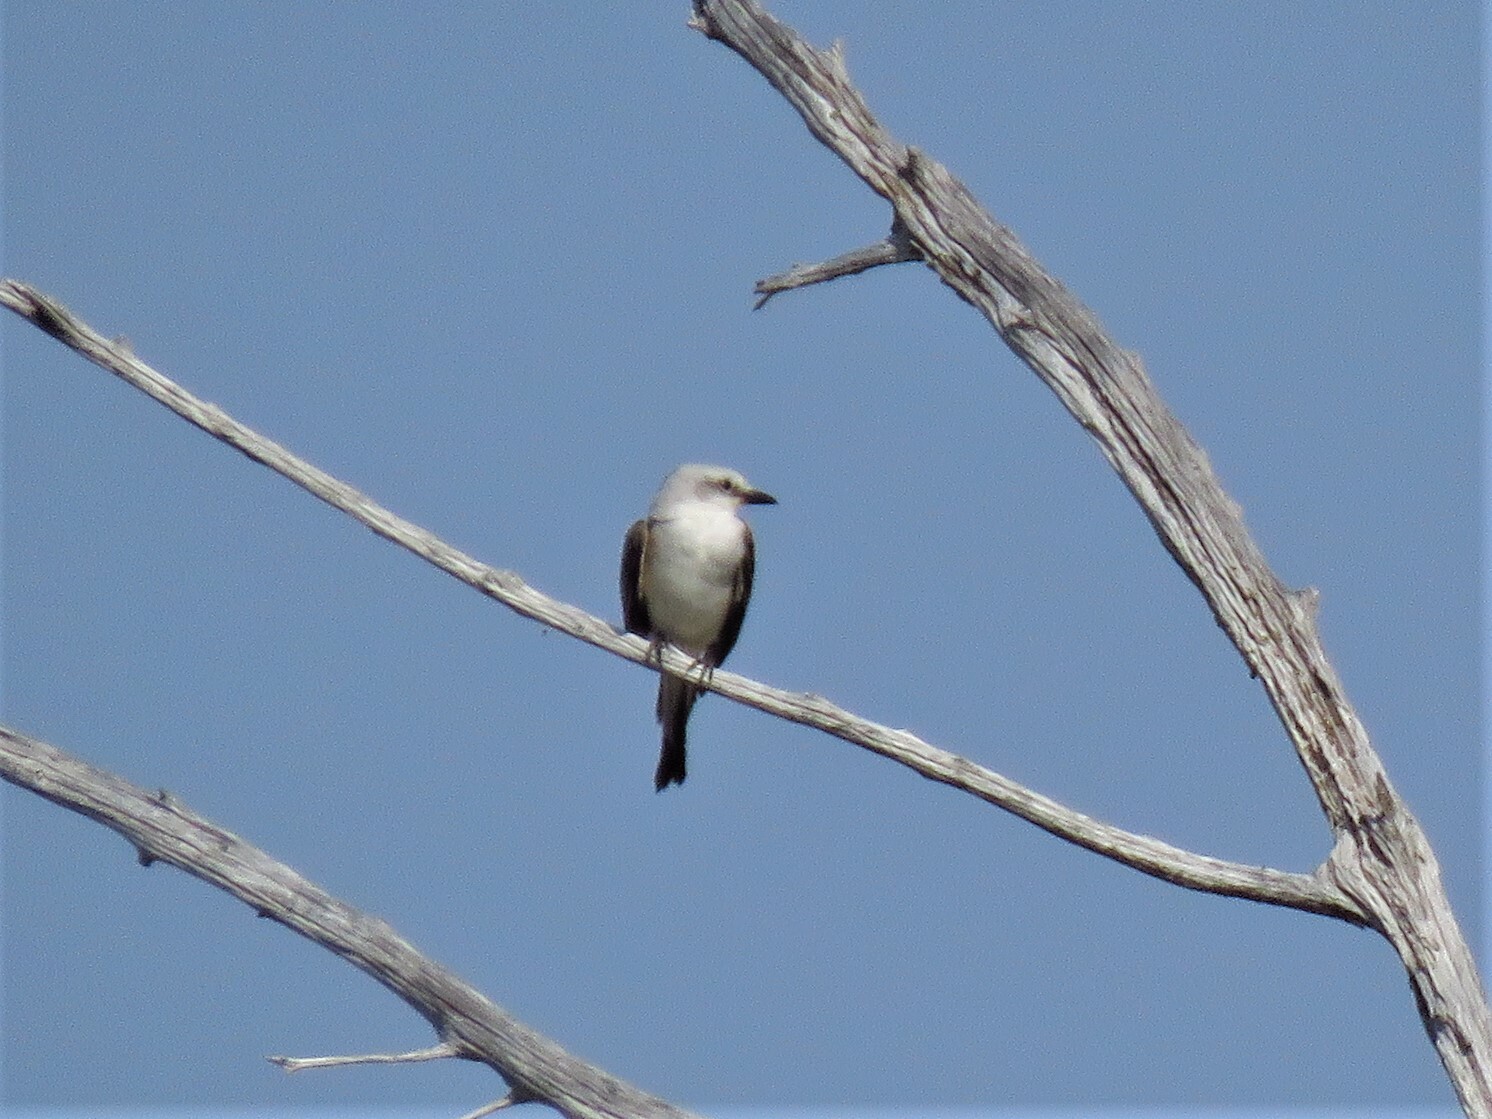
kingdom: Animalia
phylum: Chordata
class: Aves
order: Passeriformes
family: Tyrannidae
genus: Tyrannus
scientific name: Tyrannus forficatus
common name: Scissor-tailed flycatcher
